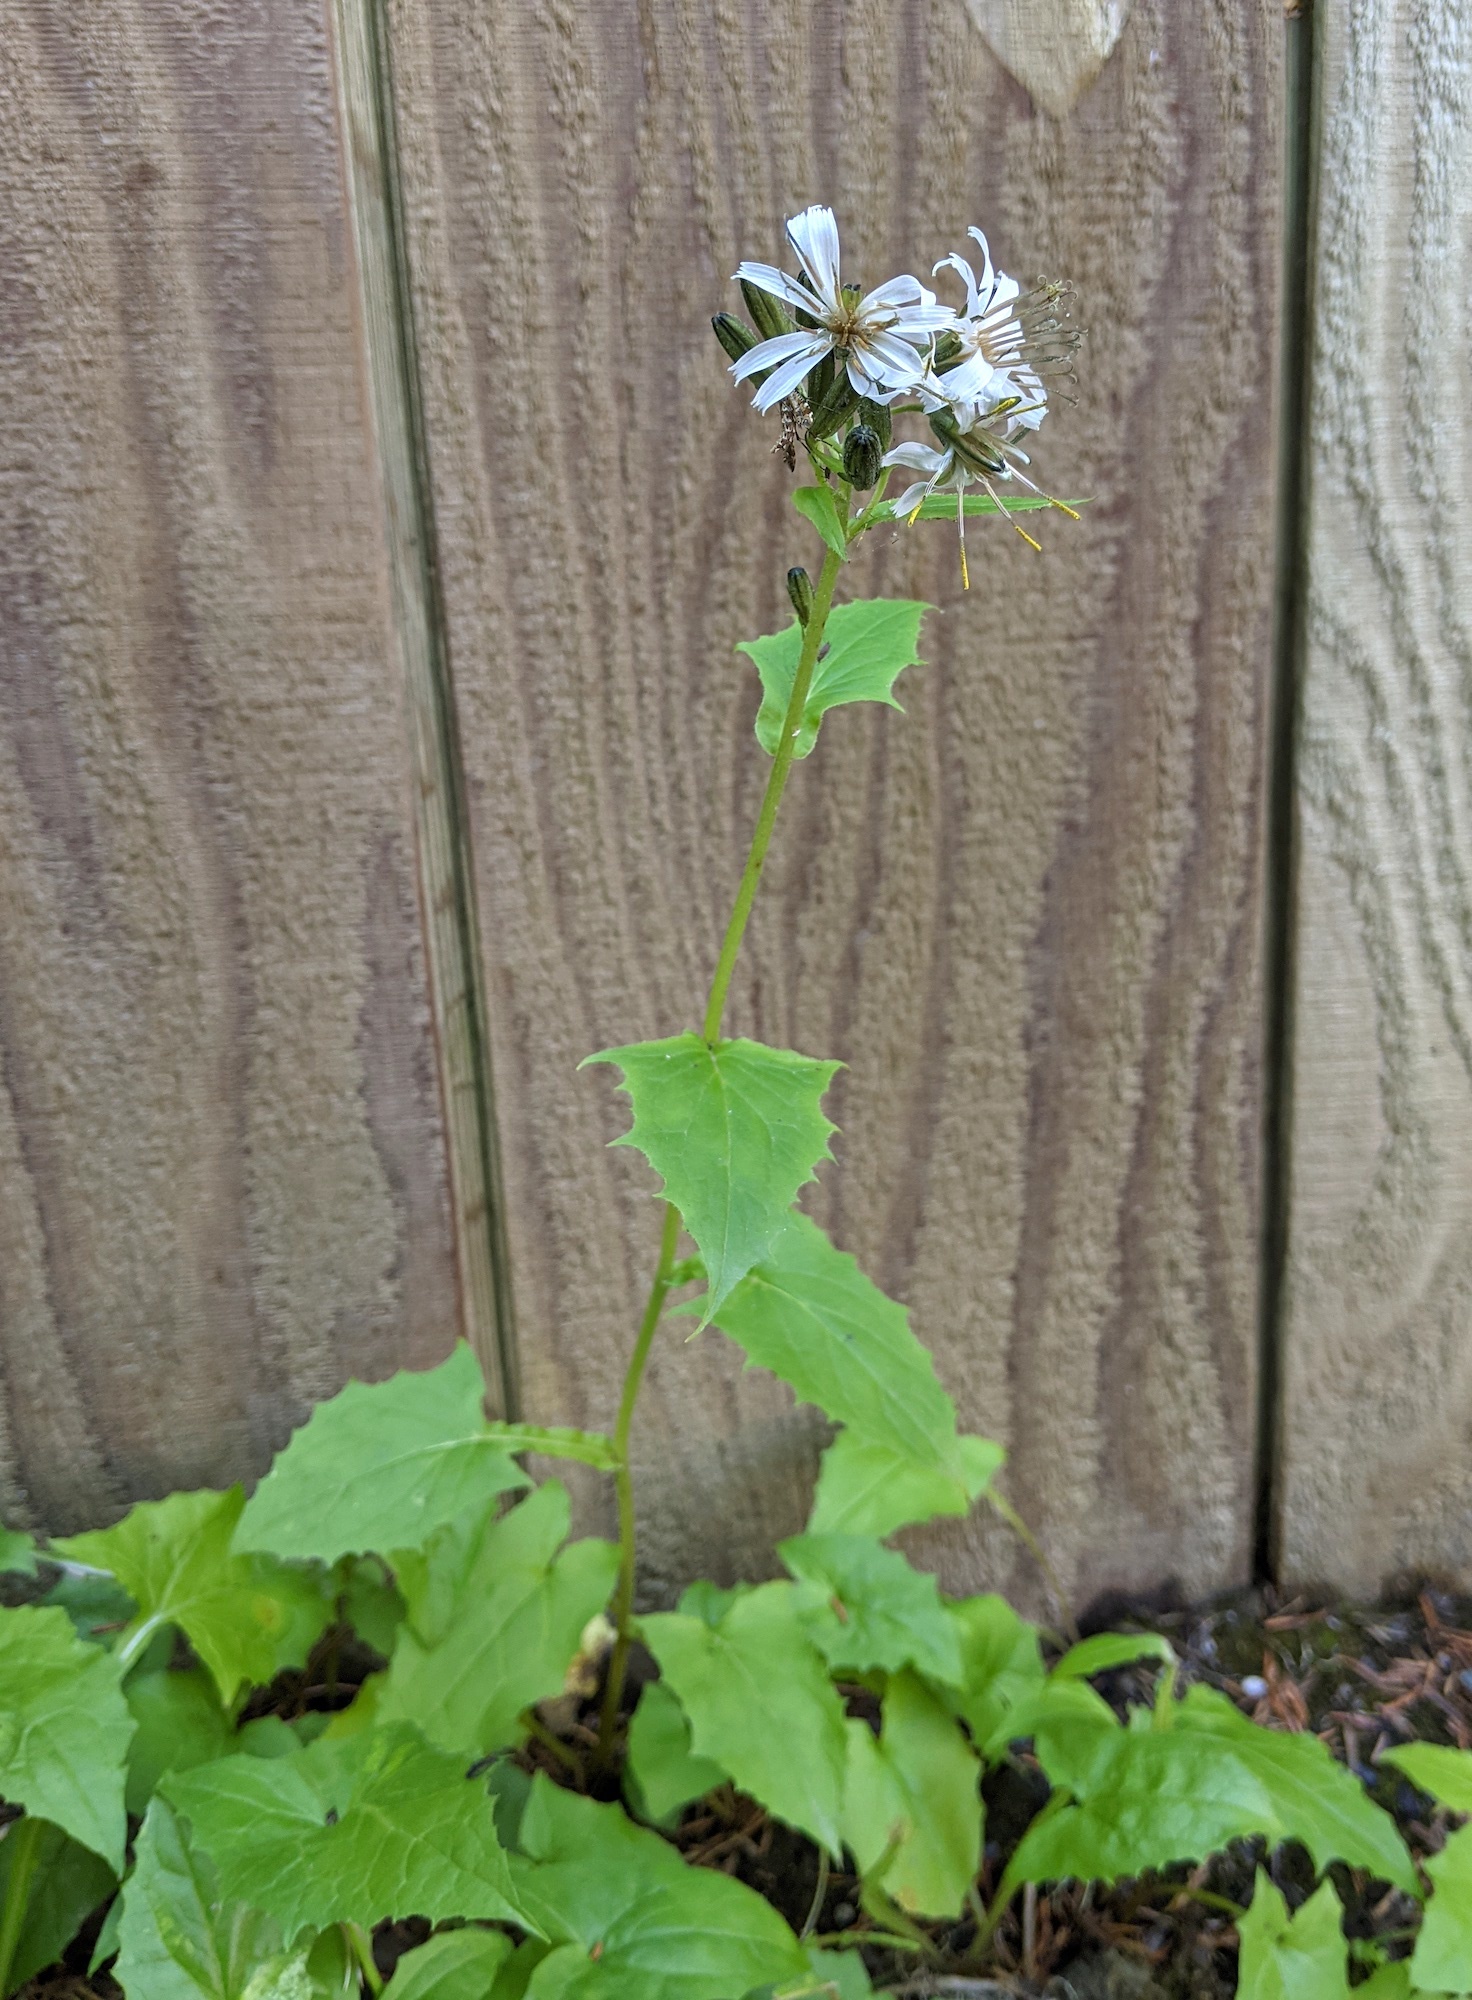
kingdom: Plantae
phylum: Tracheophyta
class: Magnoliopsida
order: Asterales
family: Asteraceae
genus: Nabalus
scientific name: Nabalus hastatus
